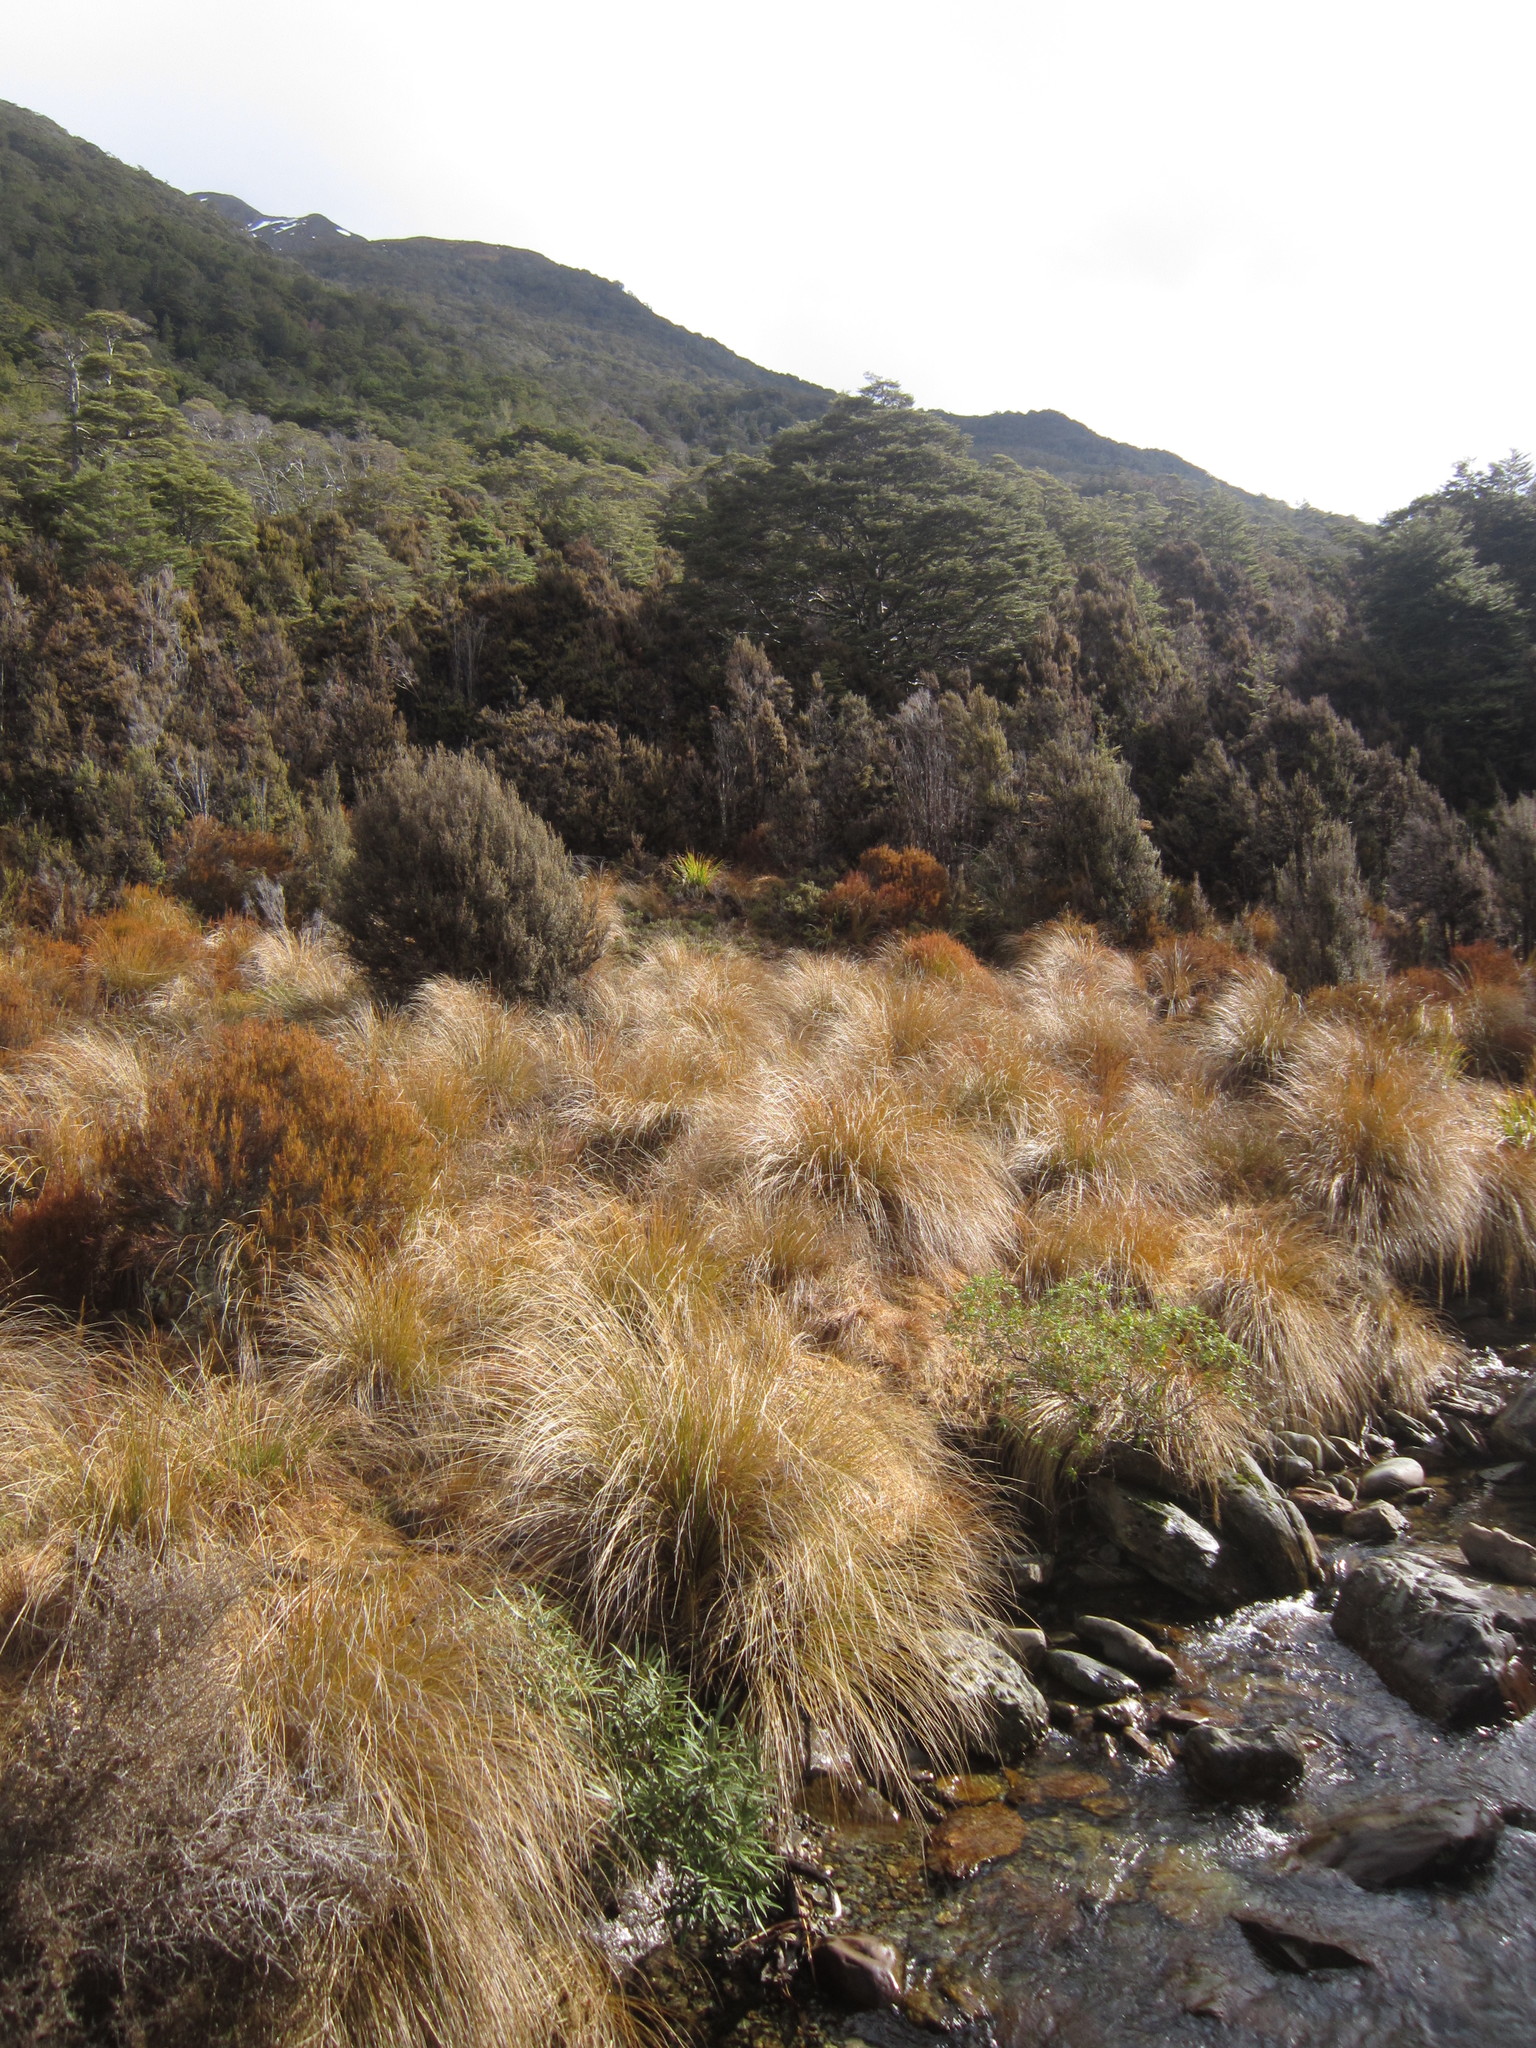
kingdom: Plantae
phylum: Tracheophyta
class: Liliopsida
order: Poales
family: Poaceae
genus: Chionochloa
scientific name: Chionochloa rubra
